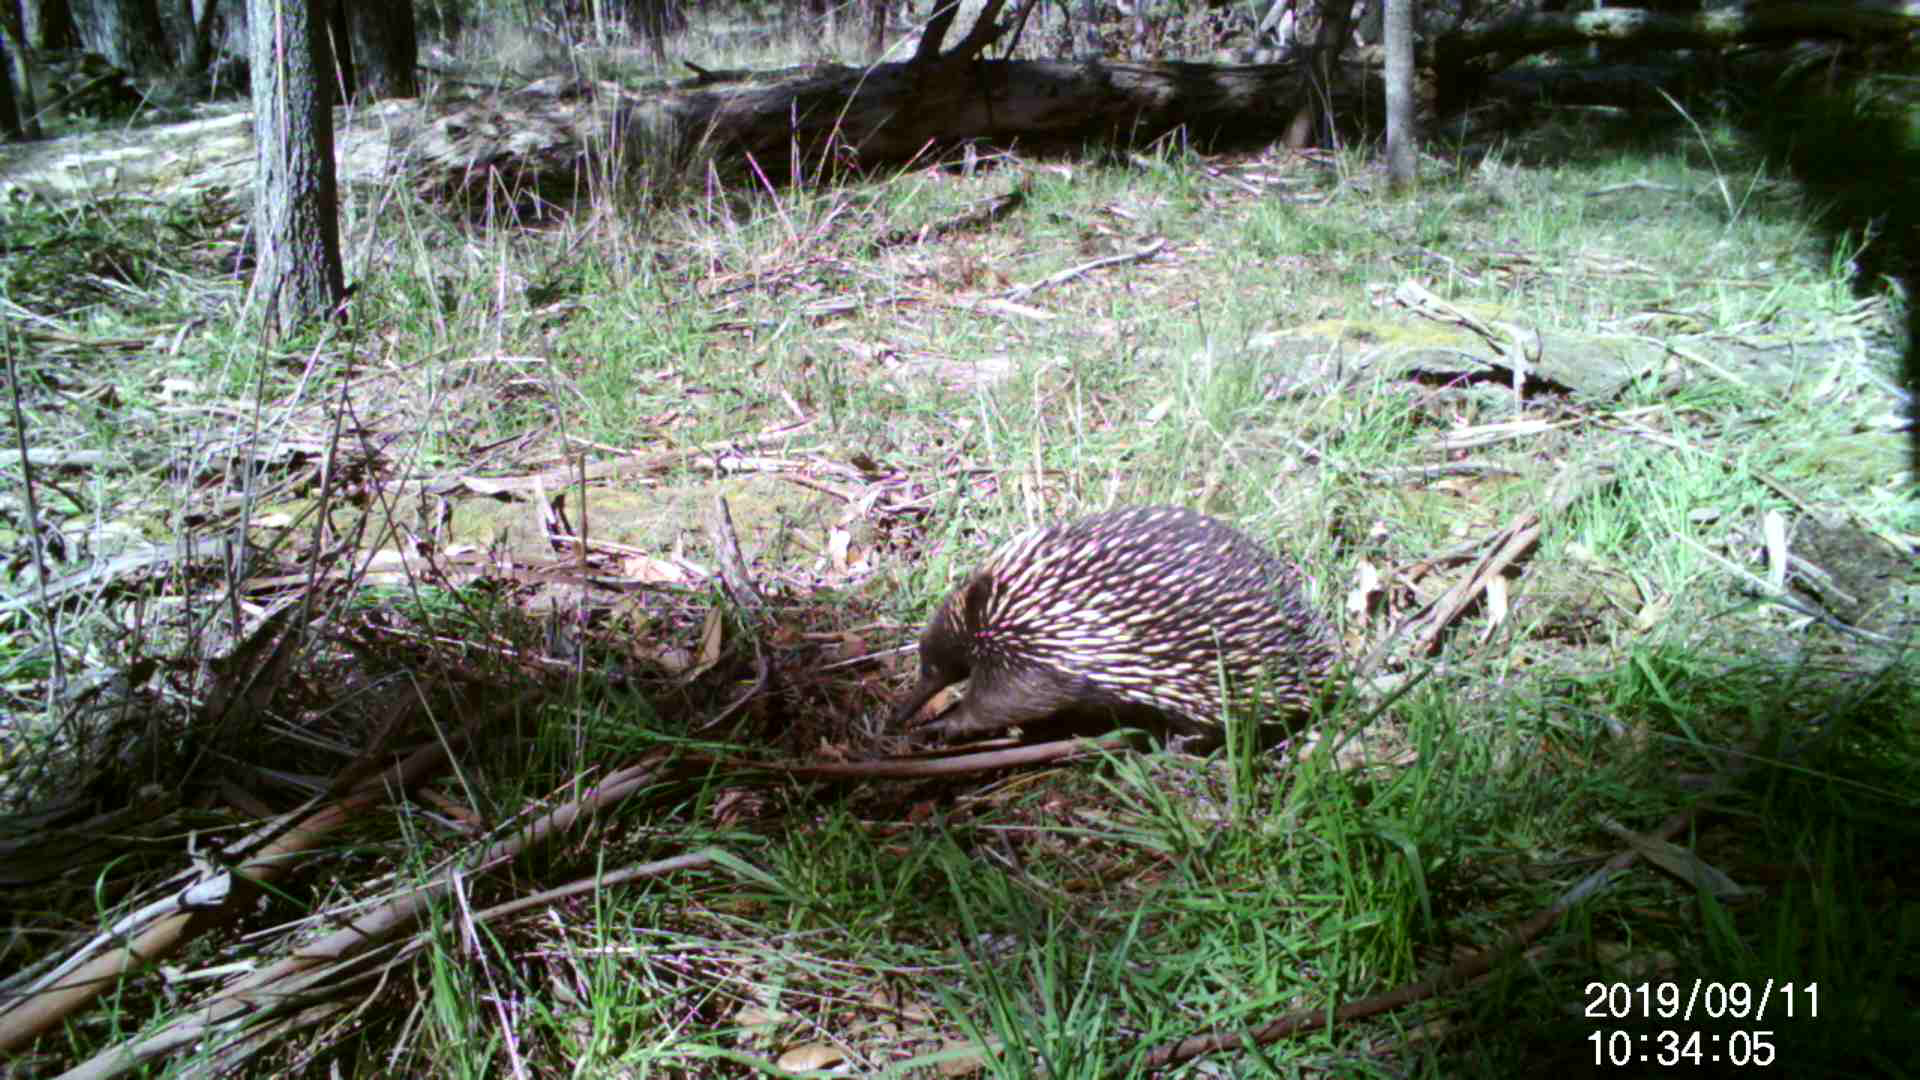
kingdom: Animalia
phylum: Chordata
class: Mammalia
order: Monotremata
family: Tachyglossidae
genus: Tachyglossus
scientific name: Tachyglossus aculeatus
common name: Short-beaked echidna
